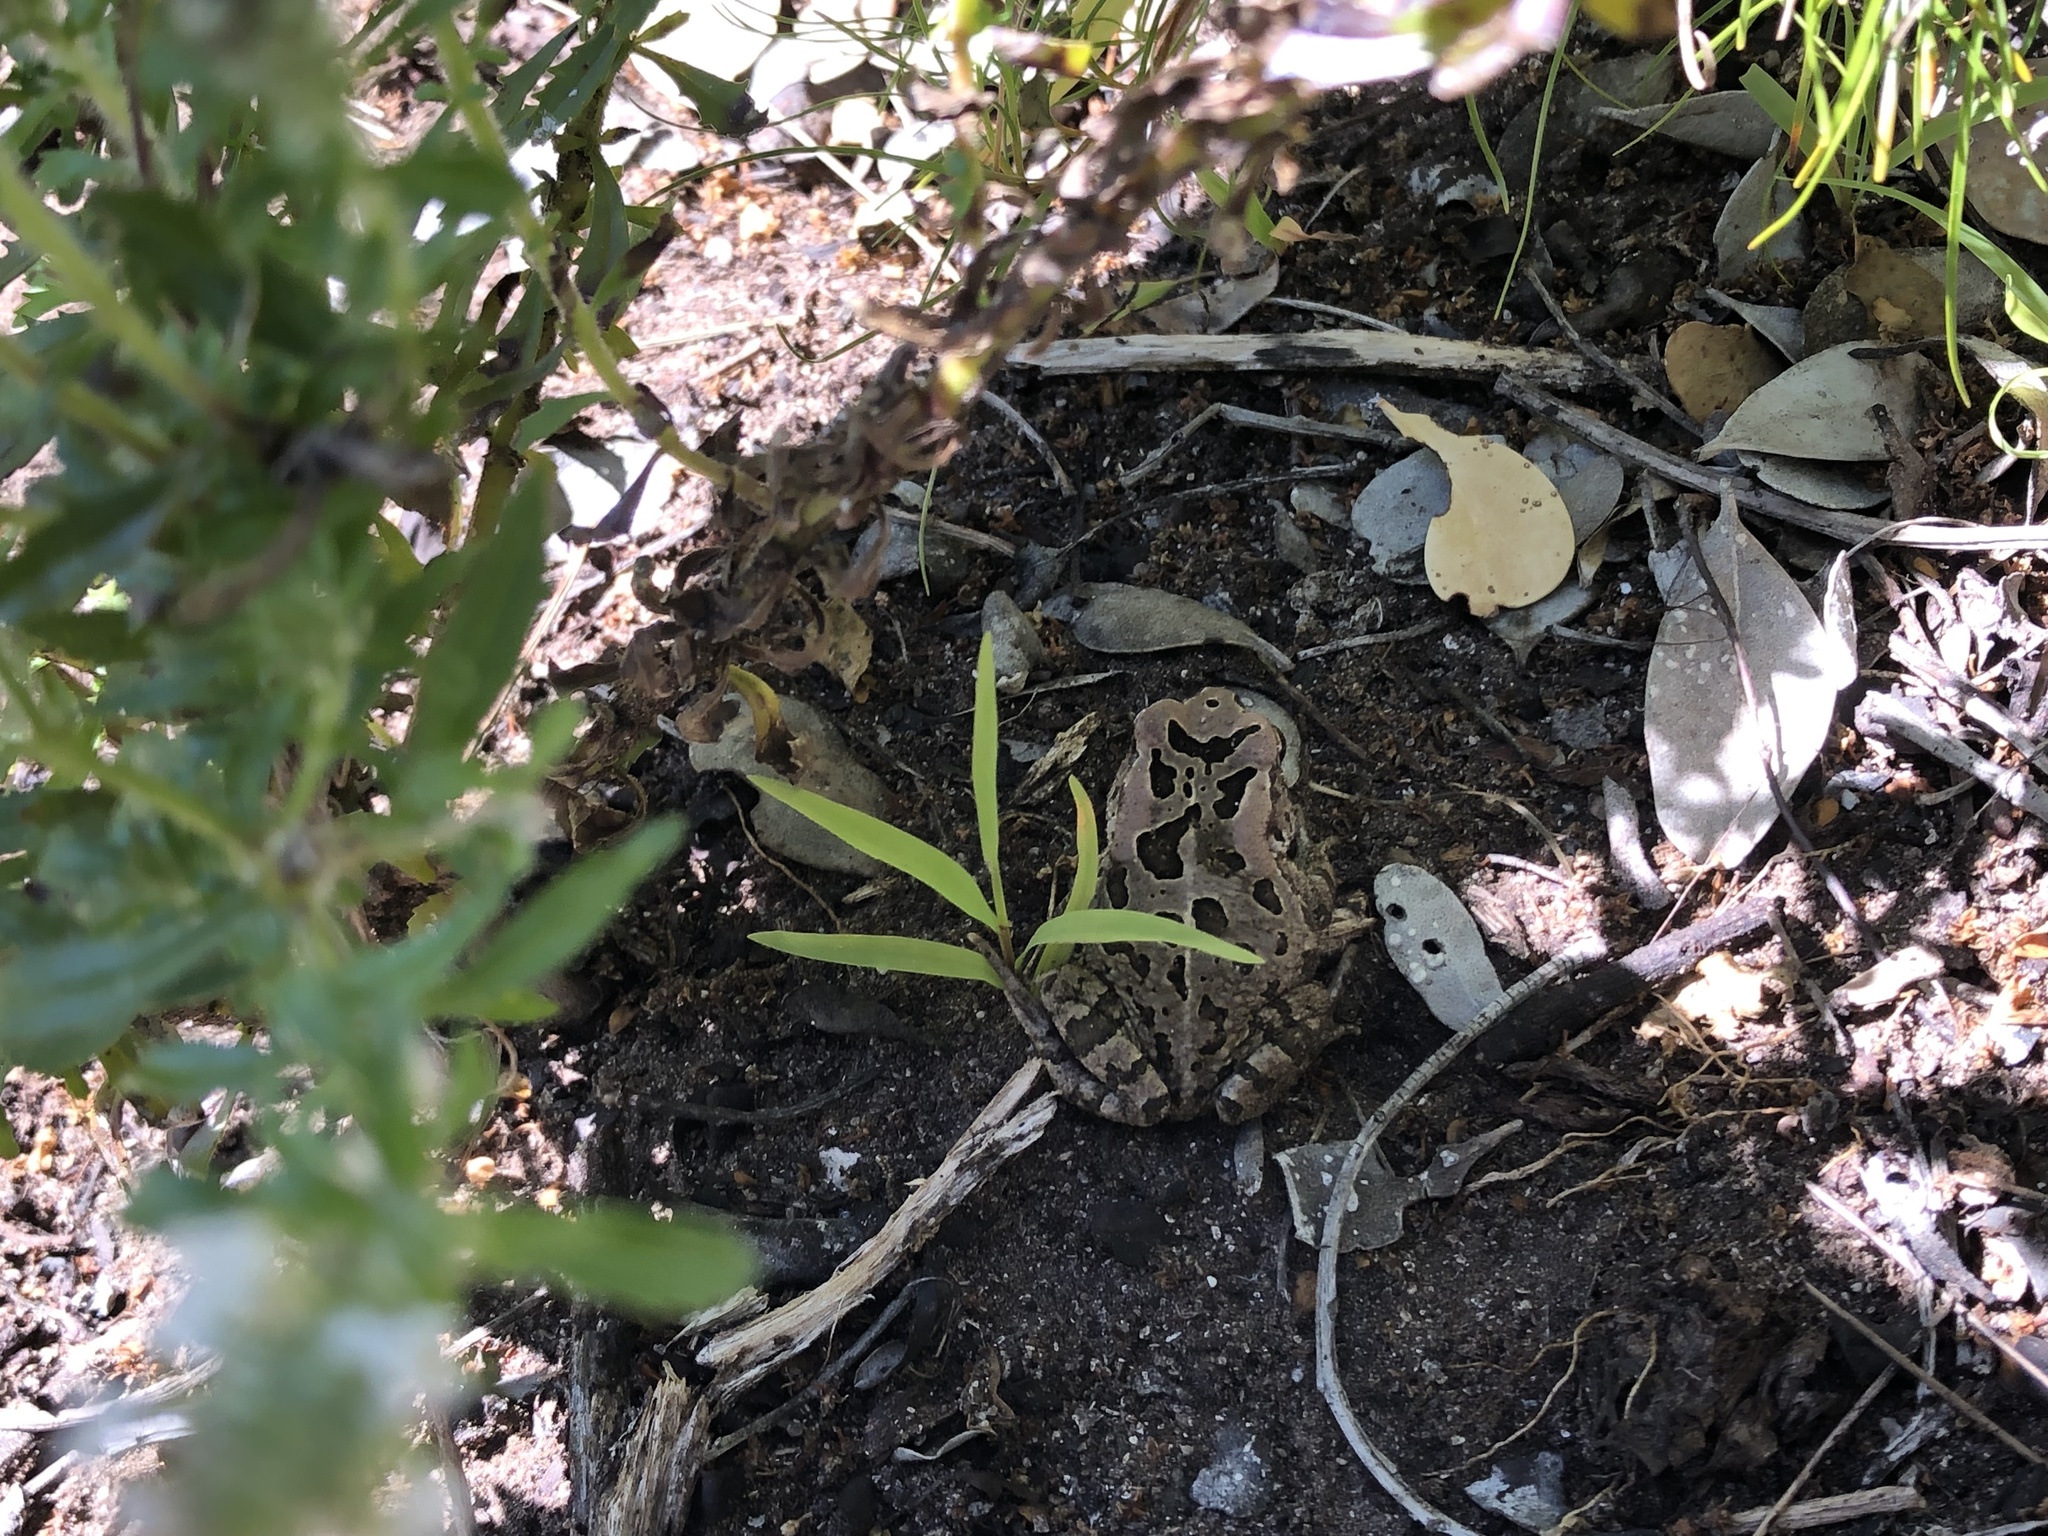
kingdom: Animalia
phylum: Chordata
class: Amphibia
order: Anura
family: Bufonidae
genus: Sclerophrys
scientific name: Sclerophrys capensis
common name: Ranger’s toad
